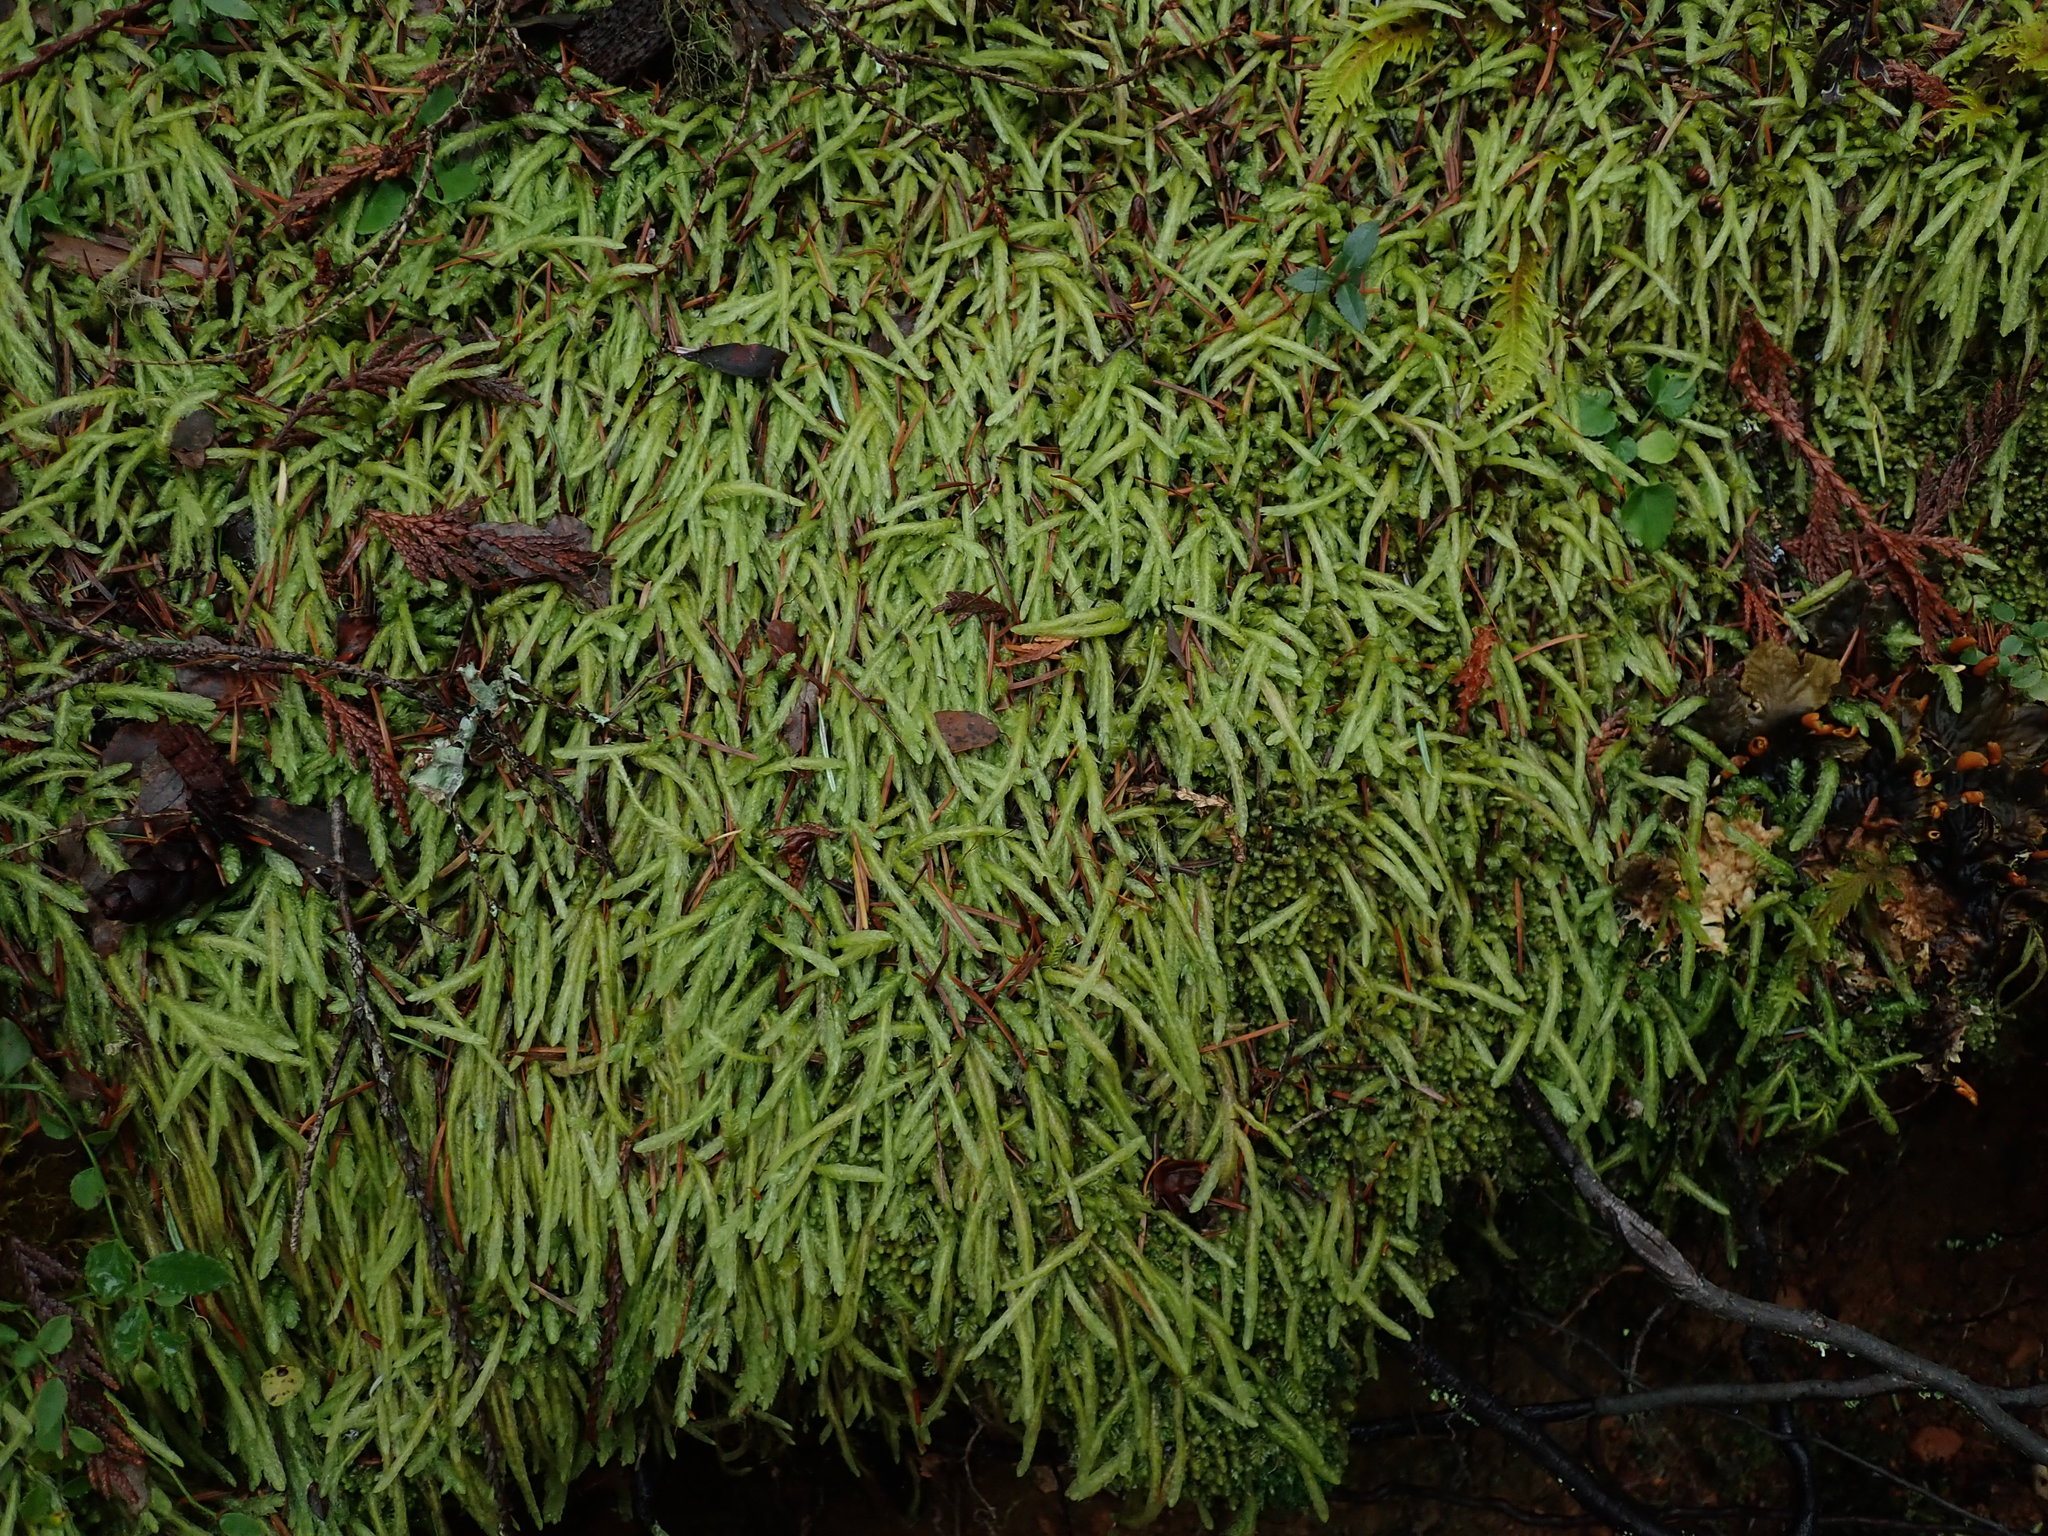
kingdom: Plantae
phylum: Bryophyta
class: Bryopsida
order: Hypnales
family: Plagiotheciaceae
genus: Plagiothecium
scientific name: Plagiothecium undulatum
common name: Waved silk-moss
